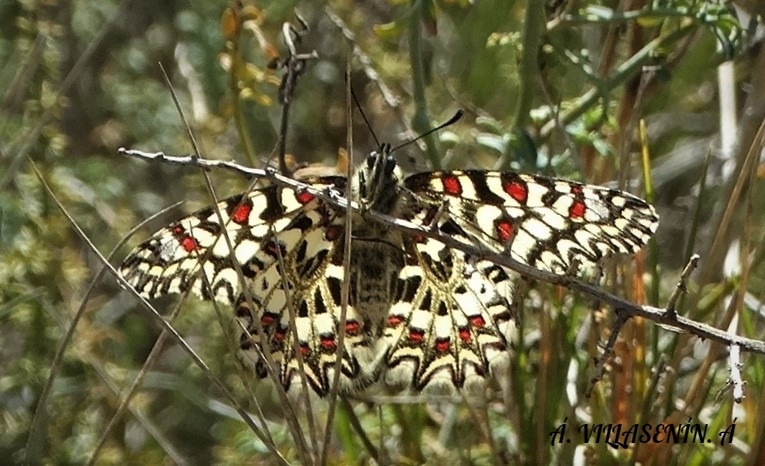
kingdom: Animalia
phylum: Arthropoda
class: Insecta
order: Lepidoptera
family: Papilionidae
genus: Zerynthia
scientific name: Zerynthia rumina
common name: Spanish festoon
